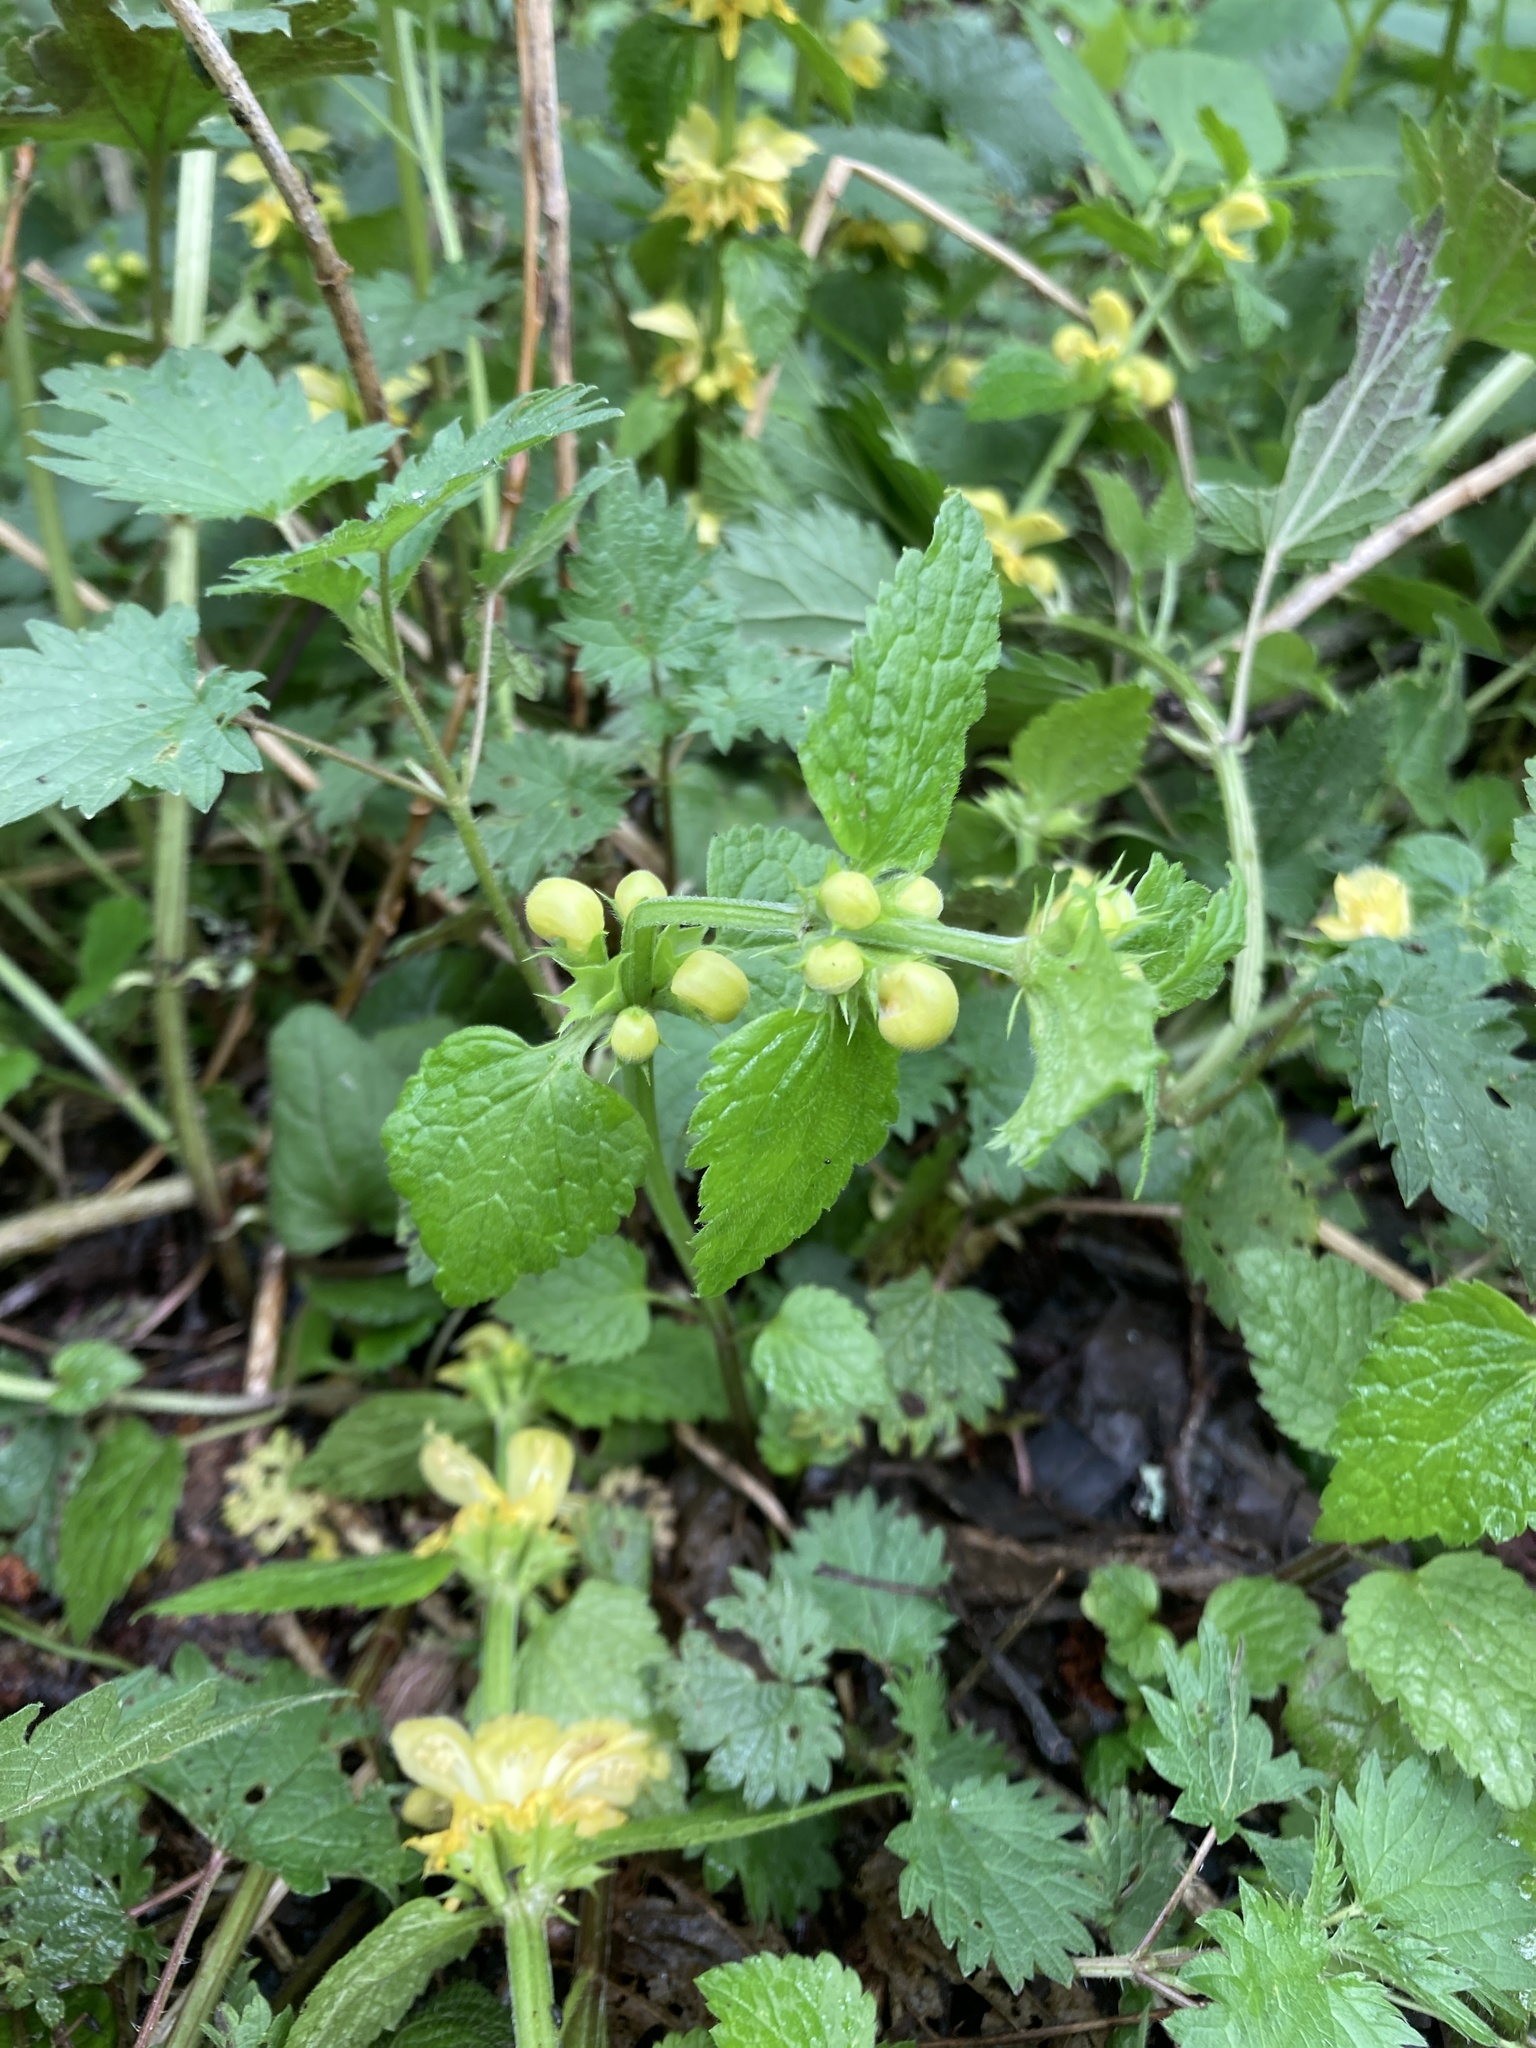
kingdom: Plantae
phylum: Tracheophyta
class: Magnoliopsida
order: Lamiales
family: Lamiaceae
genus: Lamium
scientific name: Lamium galeobdolon
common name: Yellow archangel
